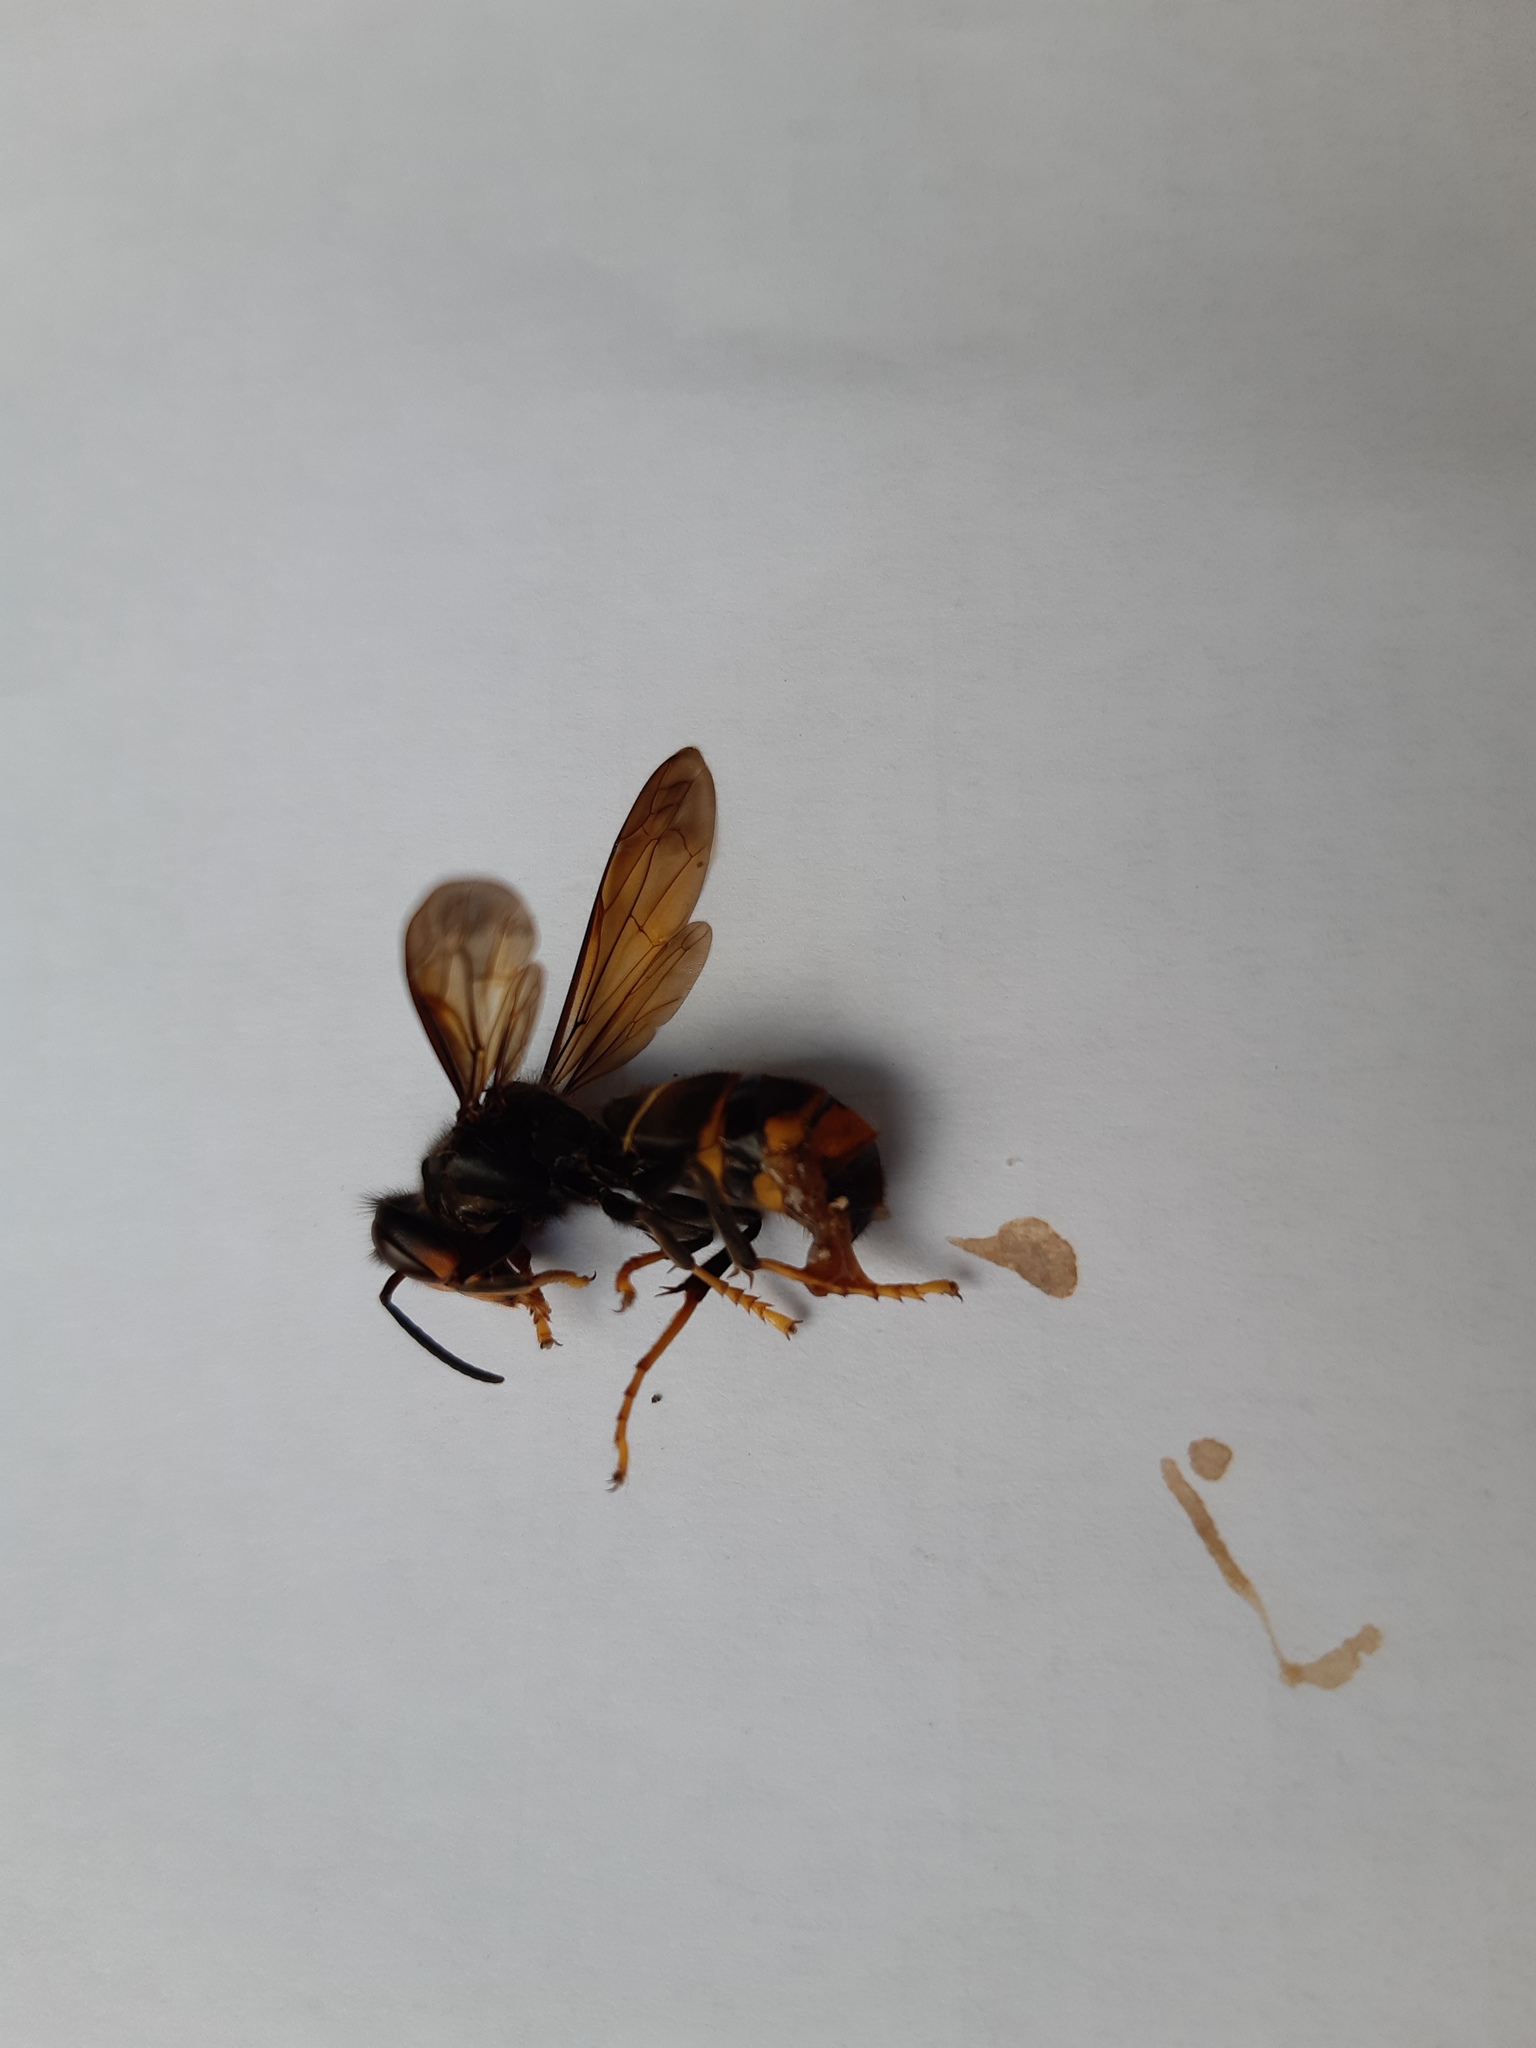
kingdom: Animalia
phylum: Arthropoda
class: Insecta
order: Hymenoptera
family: Vespidae
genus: Vespa
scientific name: Vespa velutina
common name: Asian hornet
